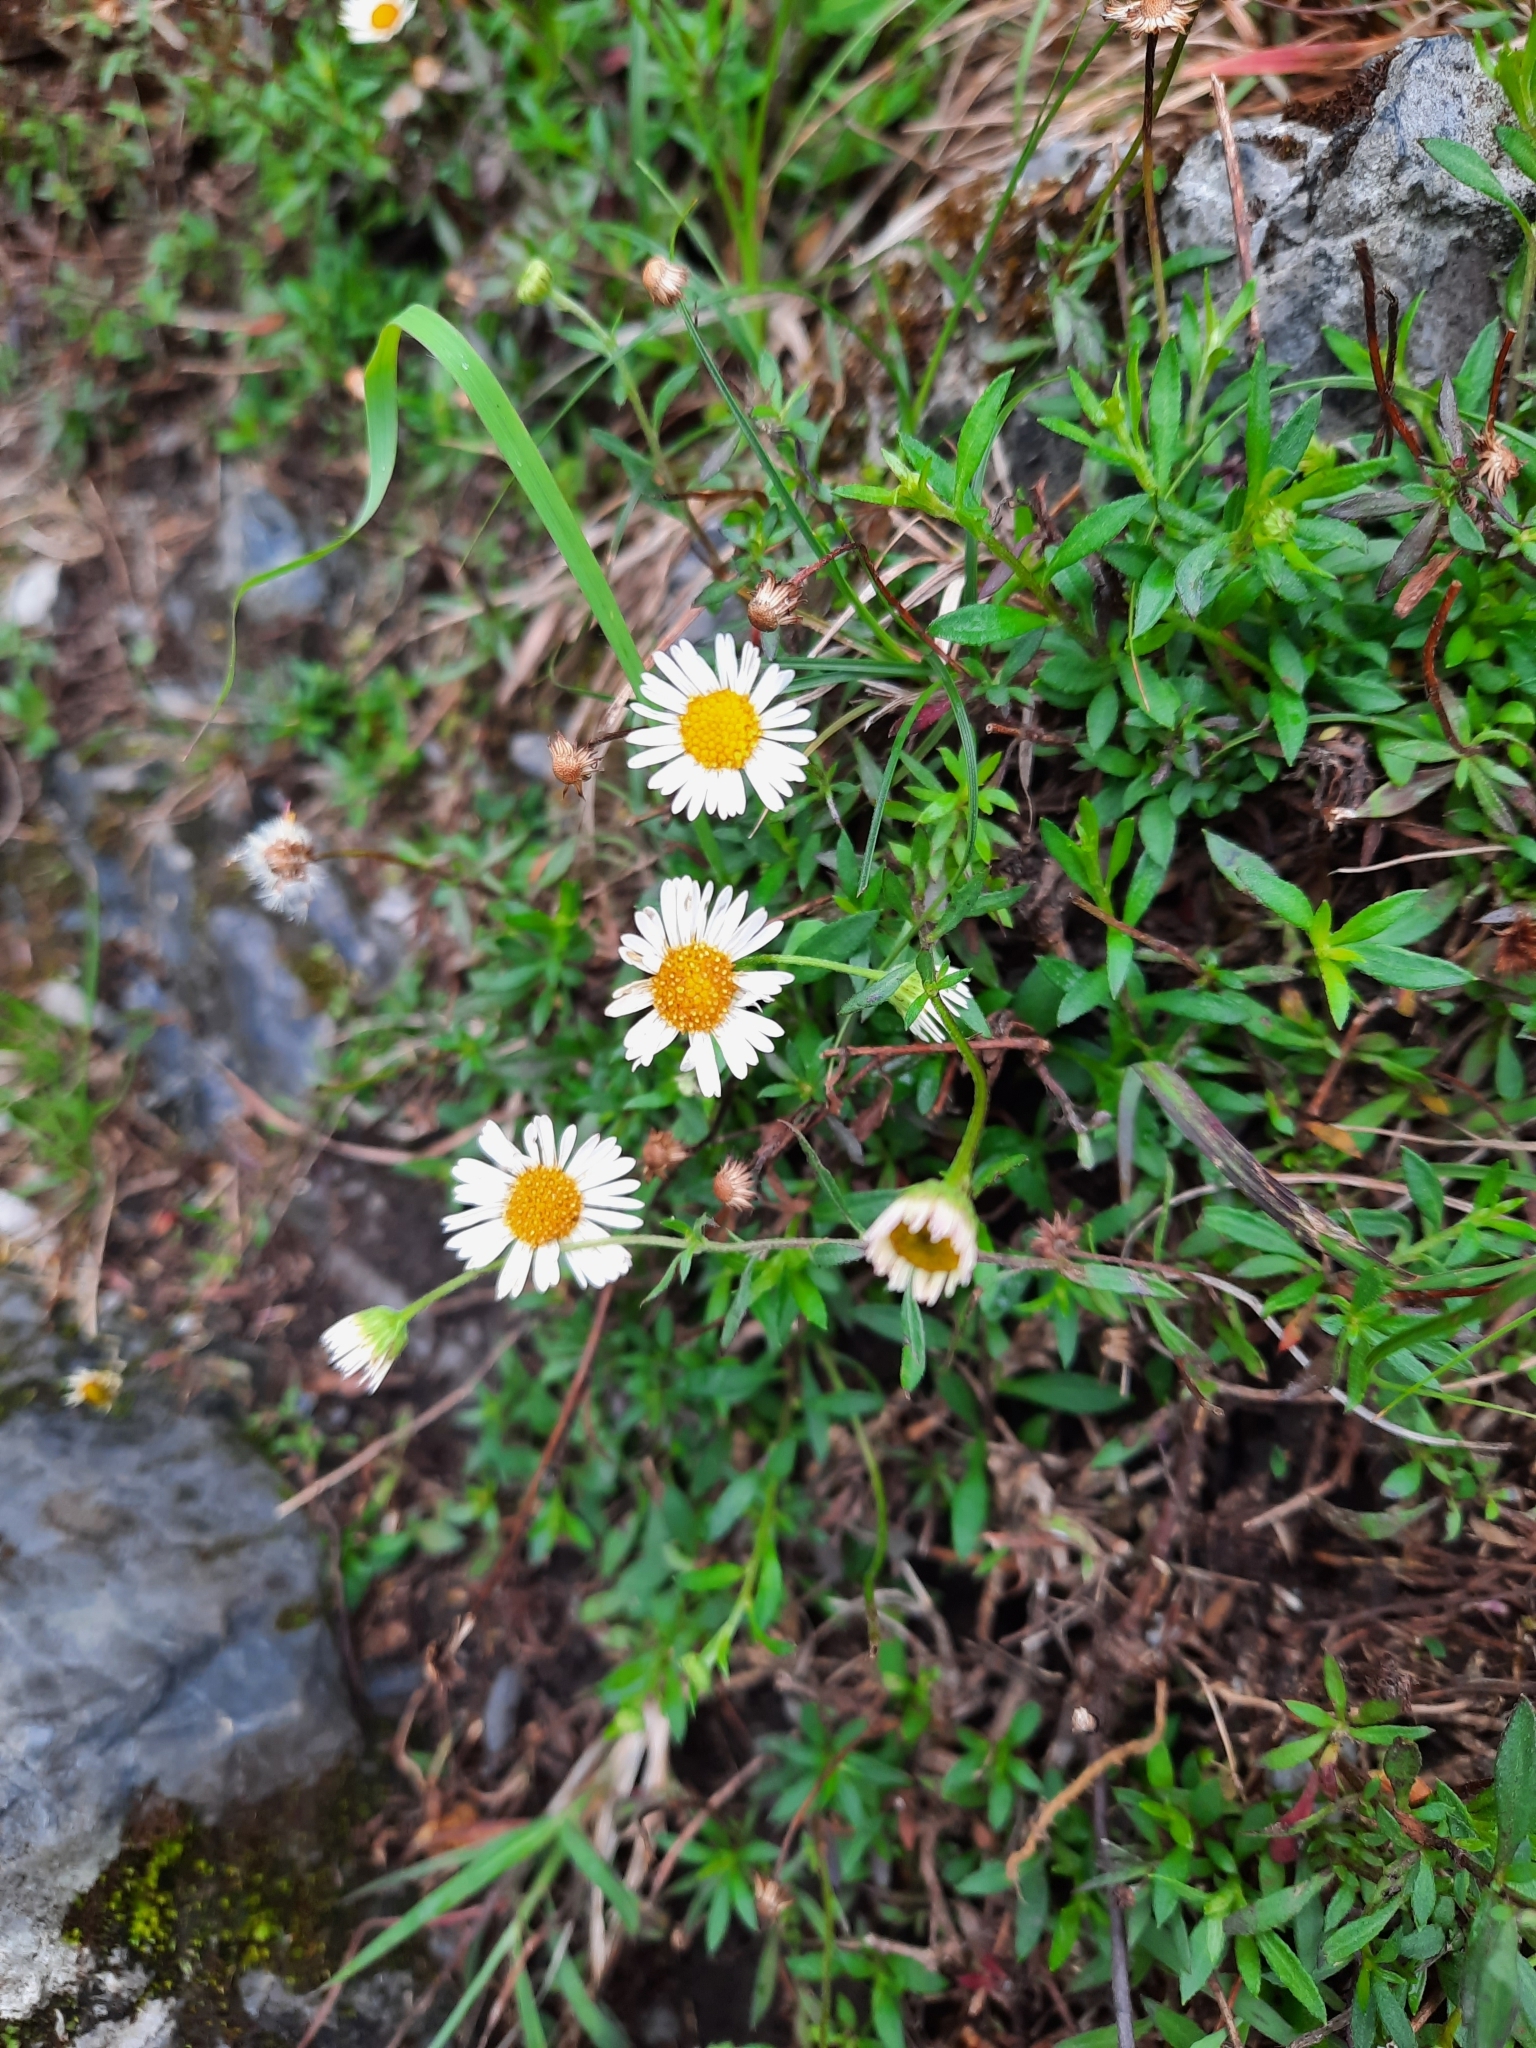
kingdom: Plantae
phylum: Tracheophyta
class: Magnoliopsida
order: Asterales
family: Asteraceae
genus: Erigeron
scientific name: Erigeron karvinskianus
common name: Mexican fleabane
